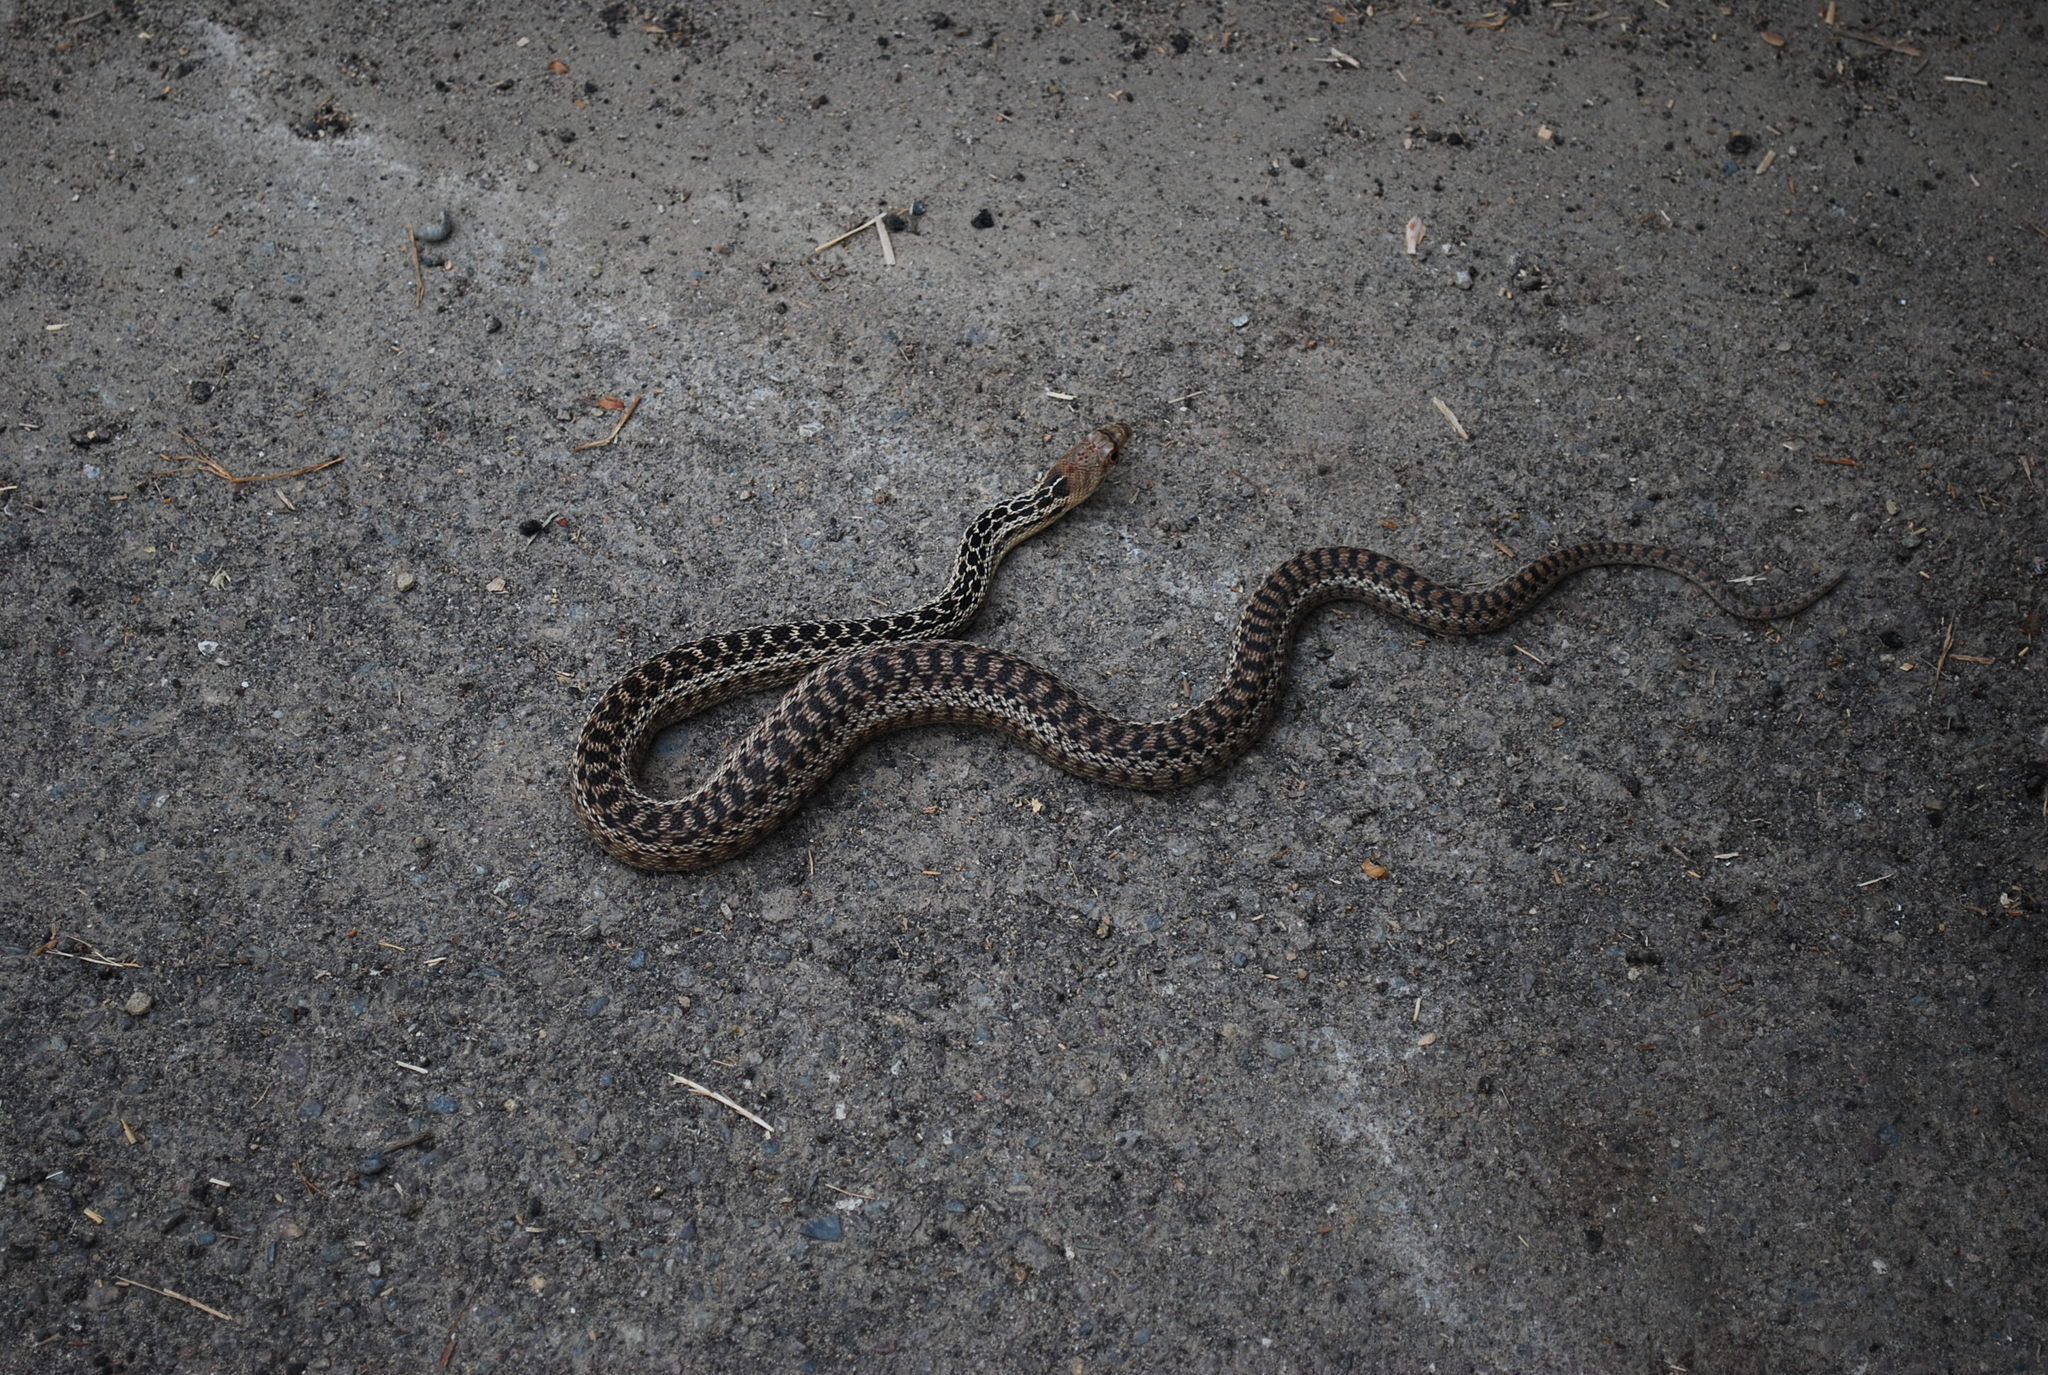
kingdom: Animalia
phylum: Chordata
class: Squamata
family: Colubridae
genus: Pituophis
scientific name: Pituophis catenifer
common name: Gopher snake
